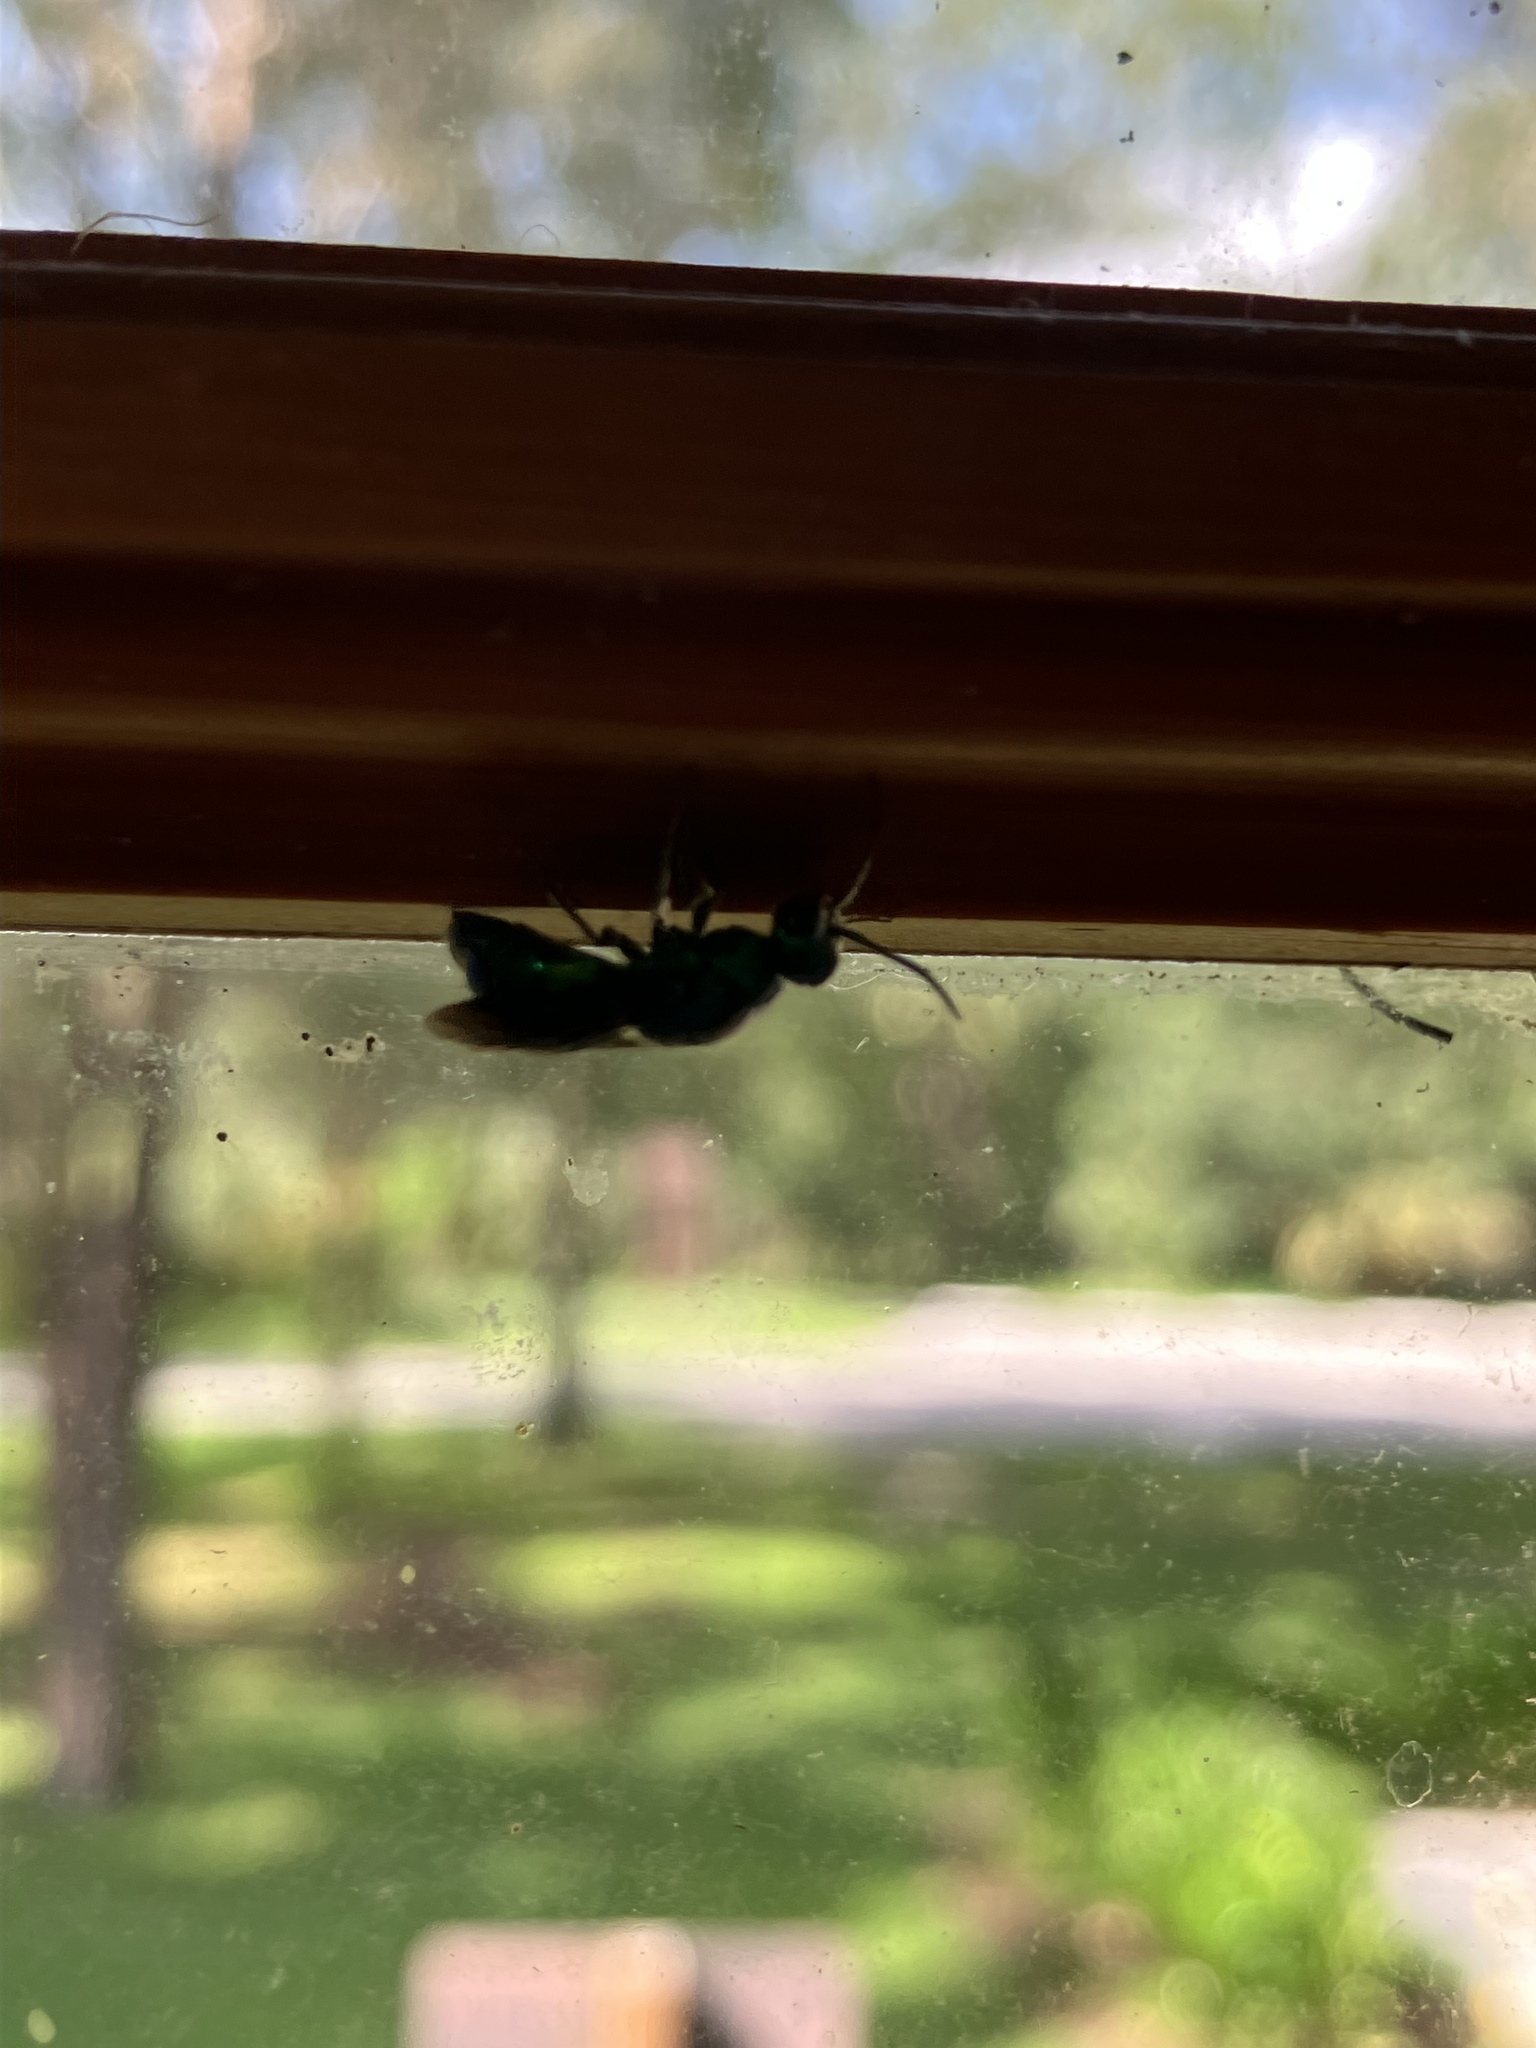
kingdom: Animalia
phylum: Arthropoda
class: Insecta
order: Hymenoptera
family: Chrysididae
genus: Chrysis
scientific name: Chrysis angolensis
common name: Cuckoo wasp
